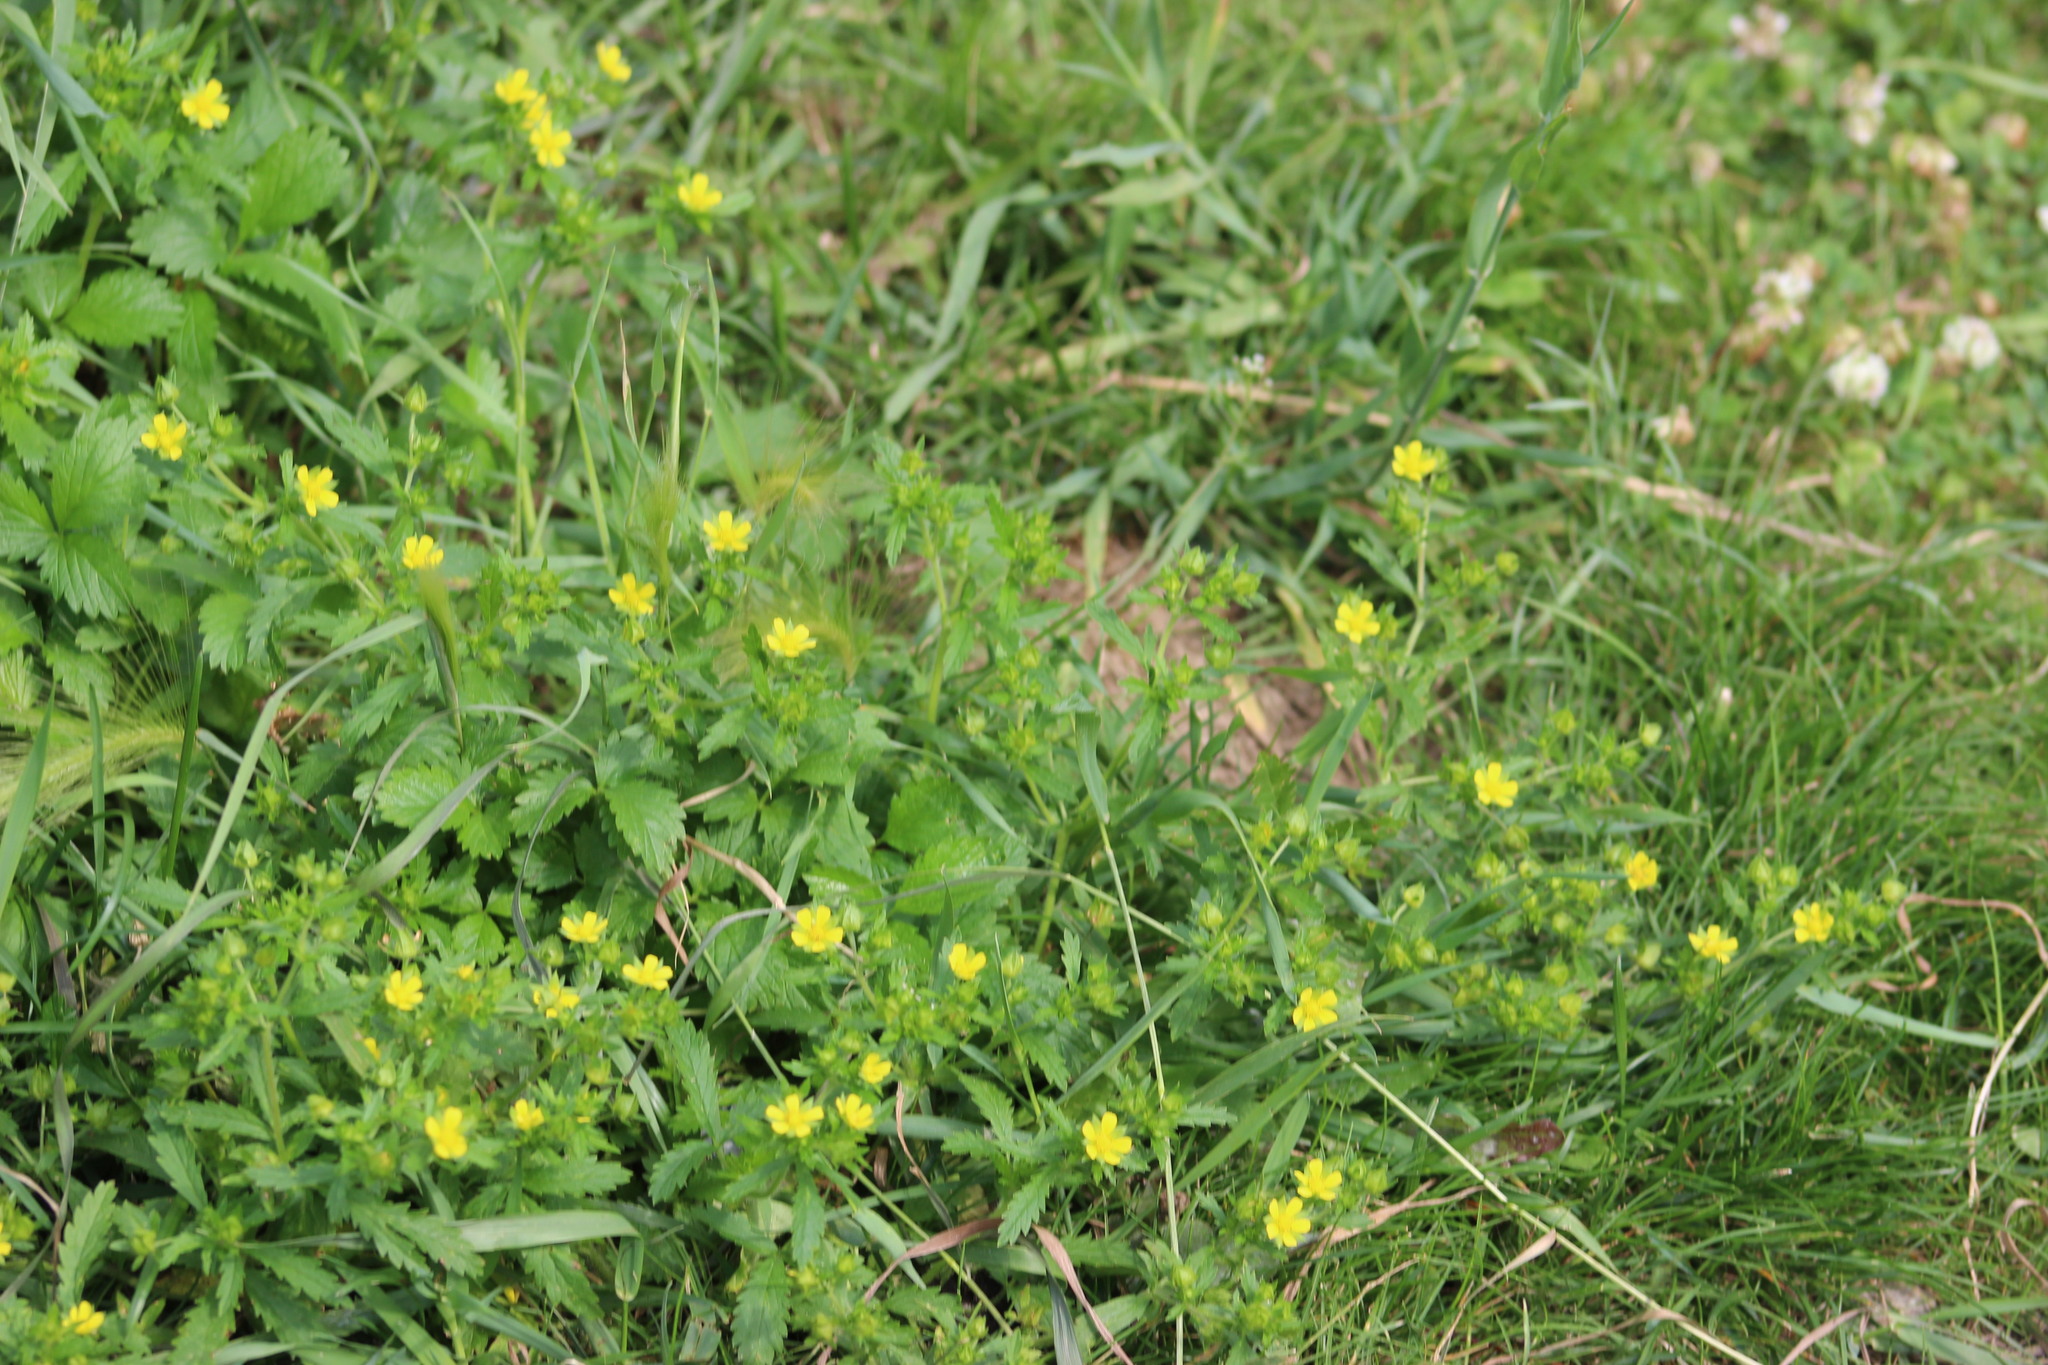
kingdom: Plantae
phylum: Tracheophyta
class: Magnoliopsida
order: Rosales
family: Rosaceae
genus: Potentilla
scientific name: Potentilla norvegica
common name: Ternate-leaved cinquefoil
